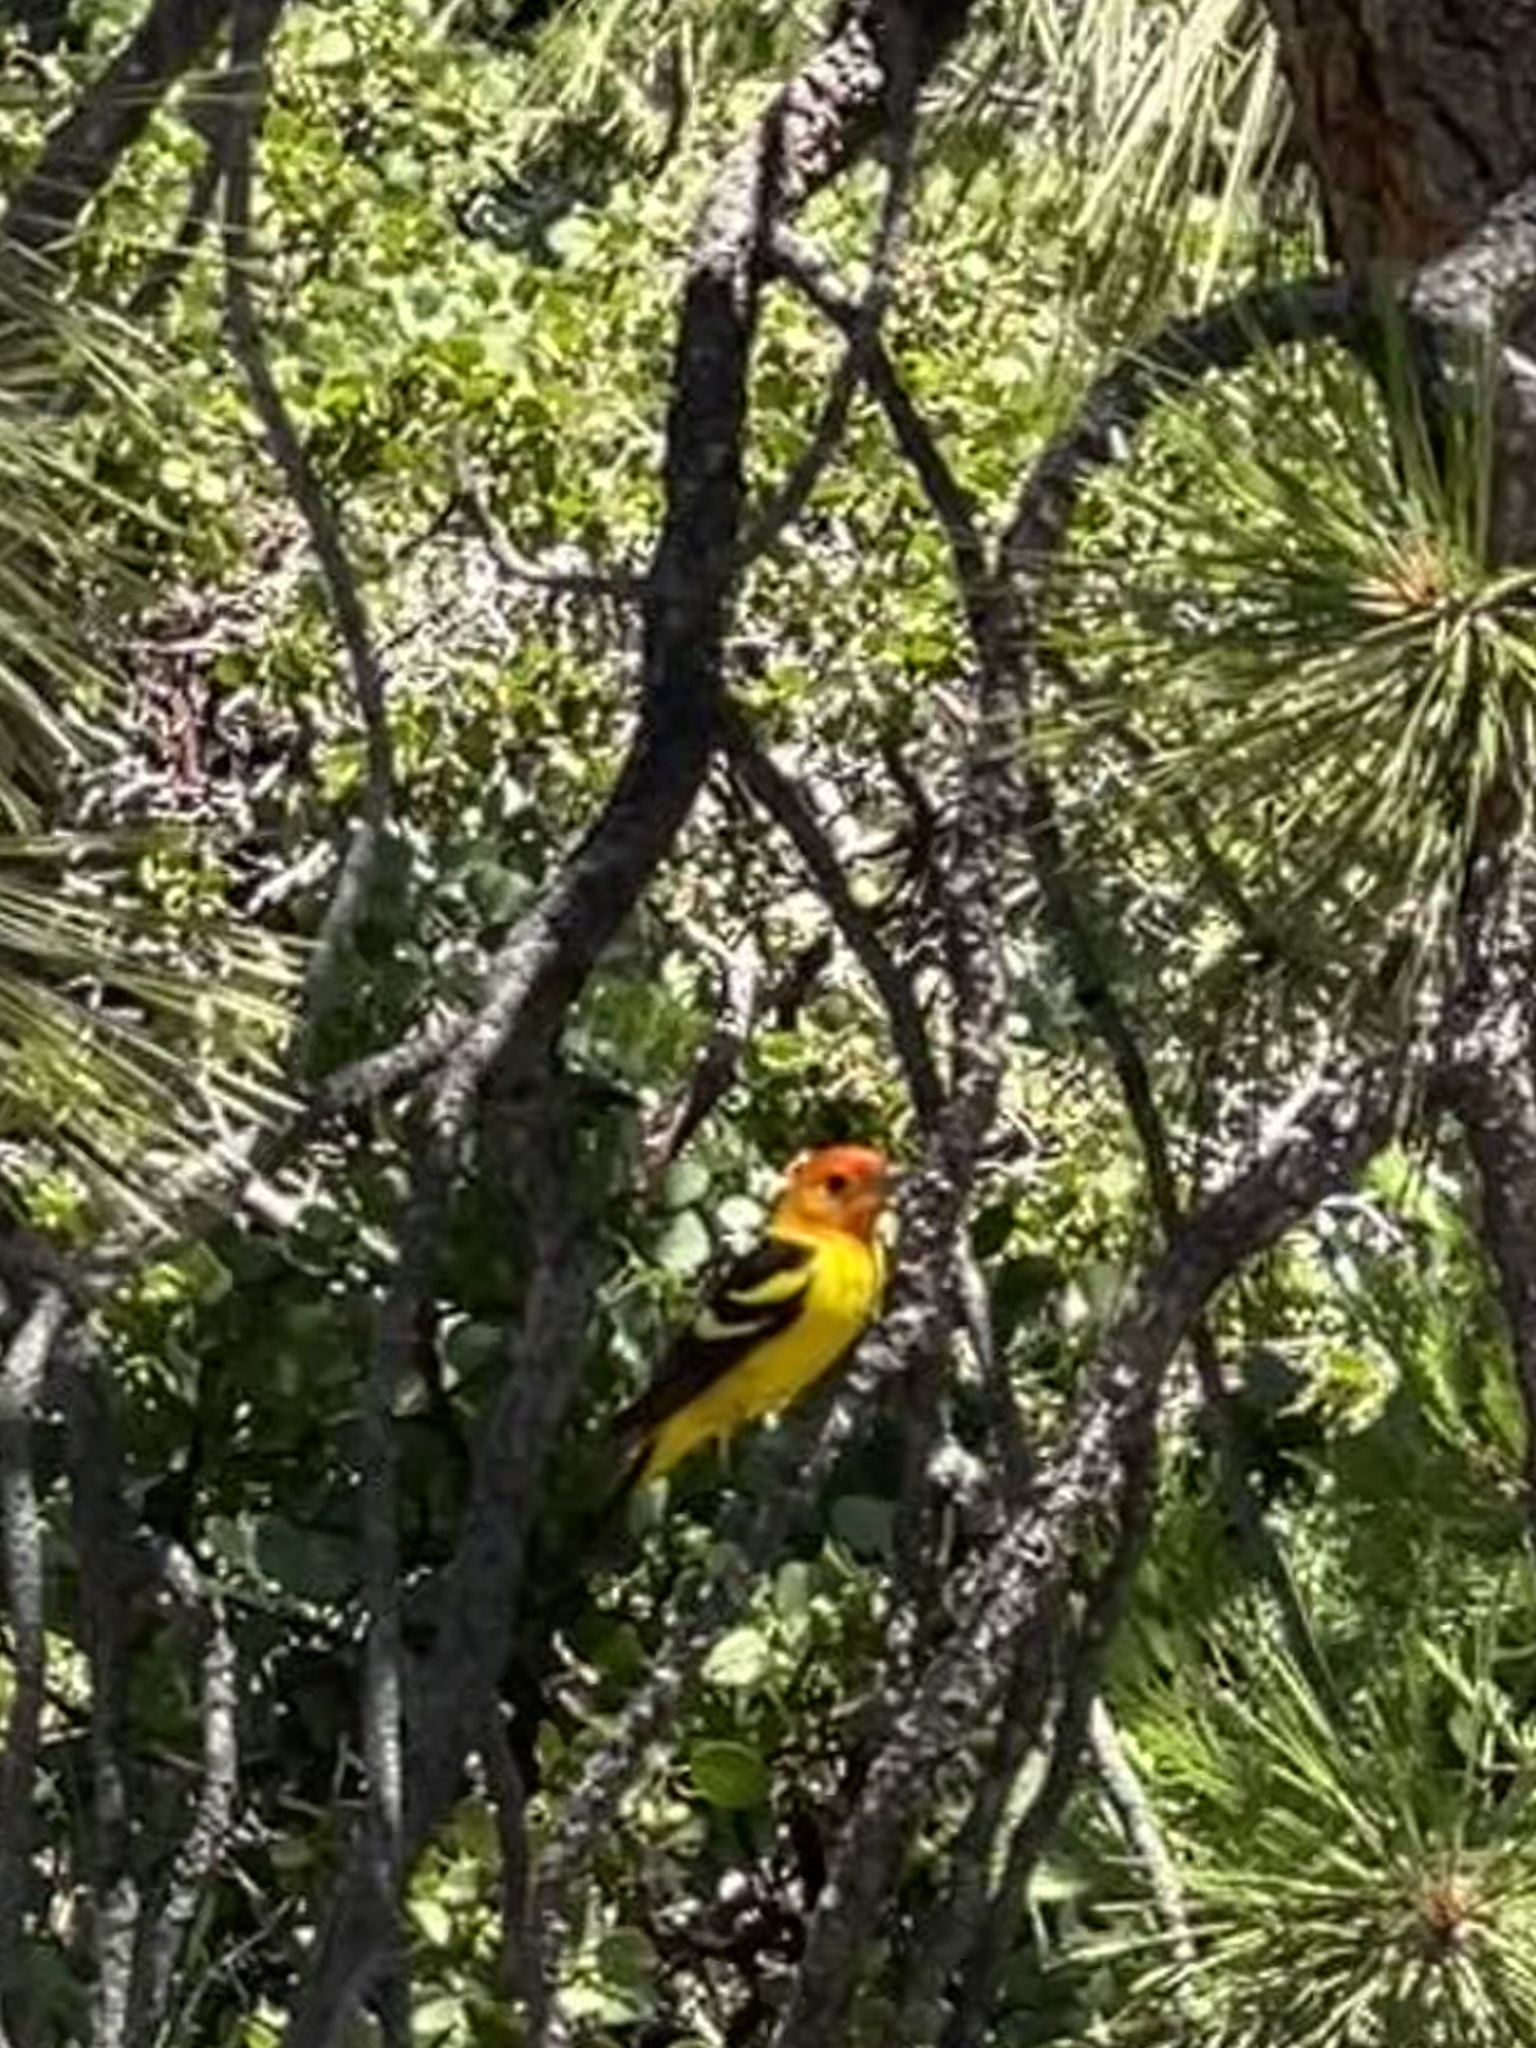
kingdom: Animalia
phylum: Chordata
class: Aves
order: Passeriformes
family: Cardinalidae
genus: Piranga
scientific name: Piranga ludoviciana
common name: Western tanager
